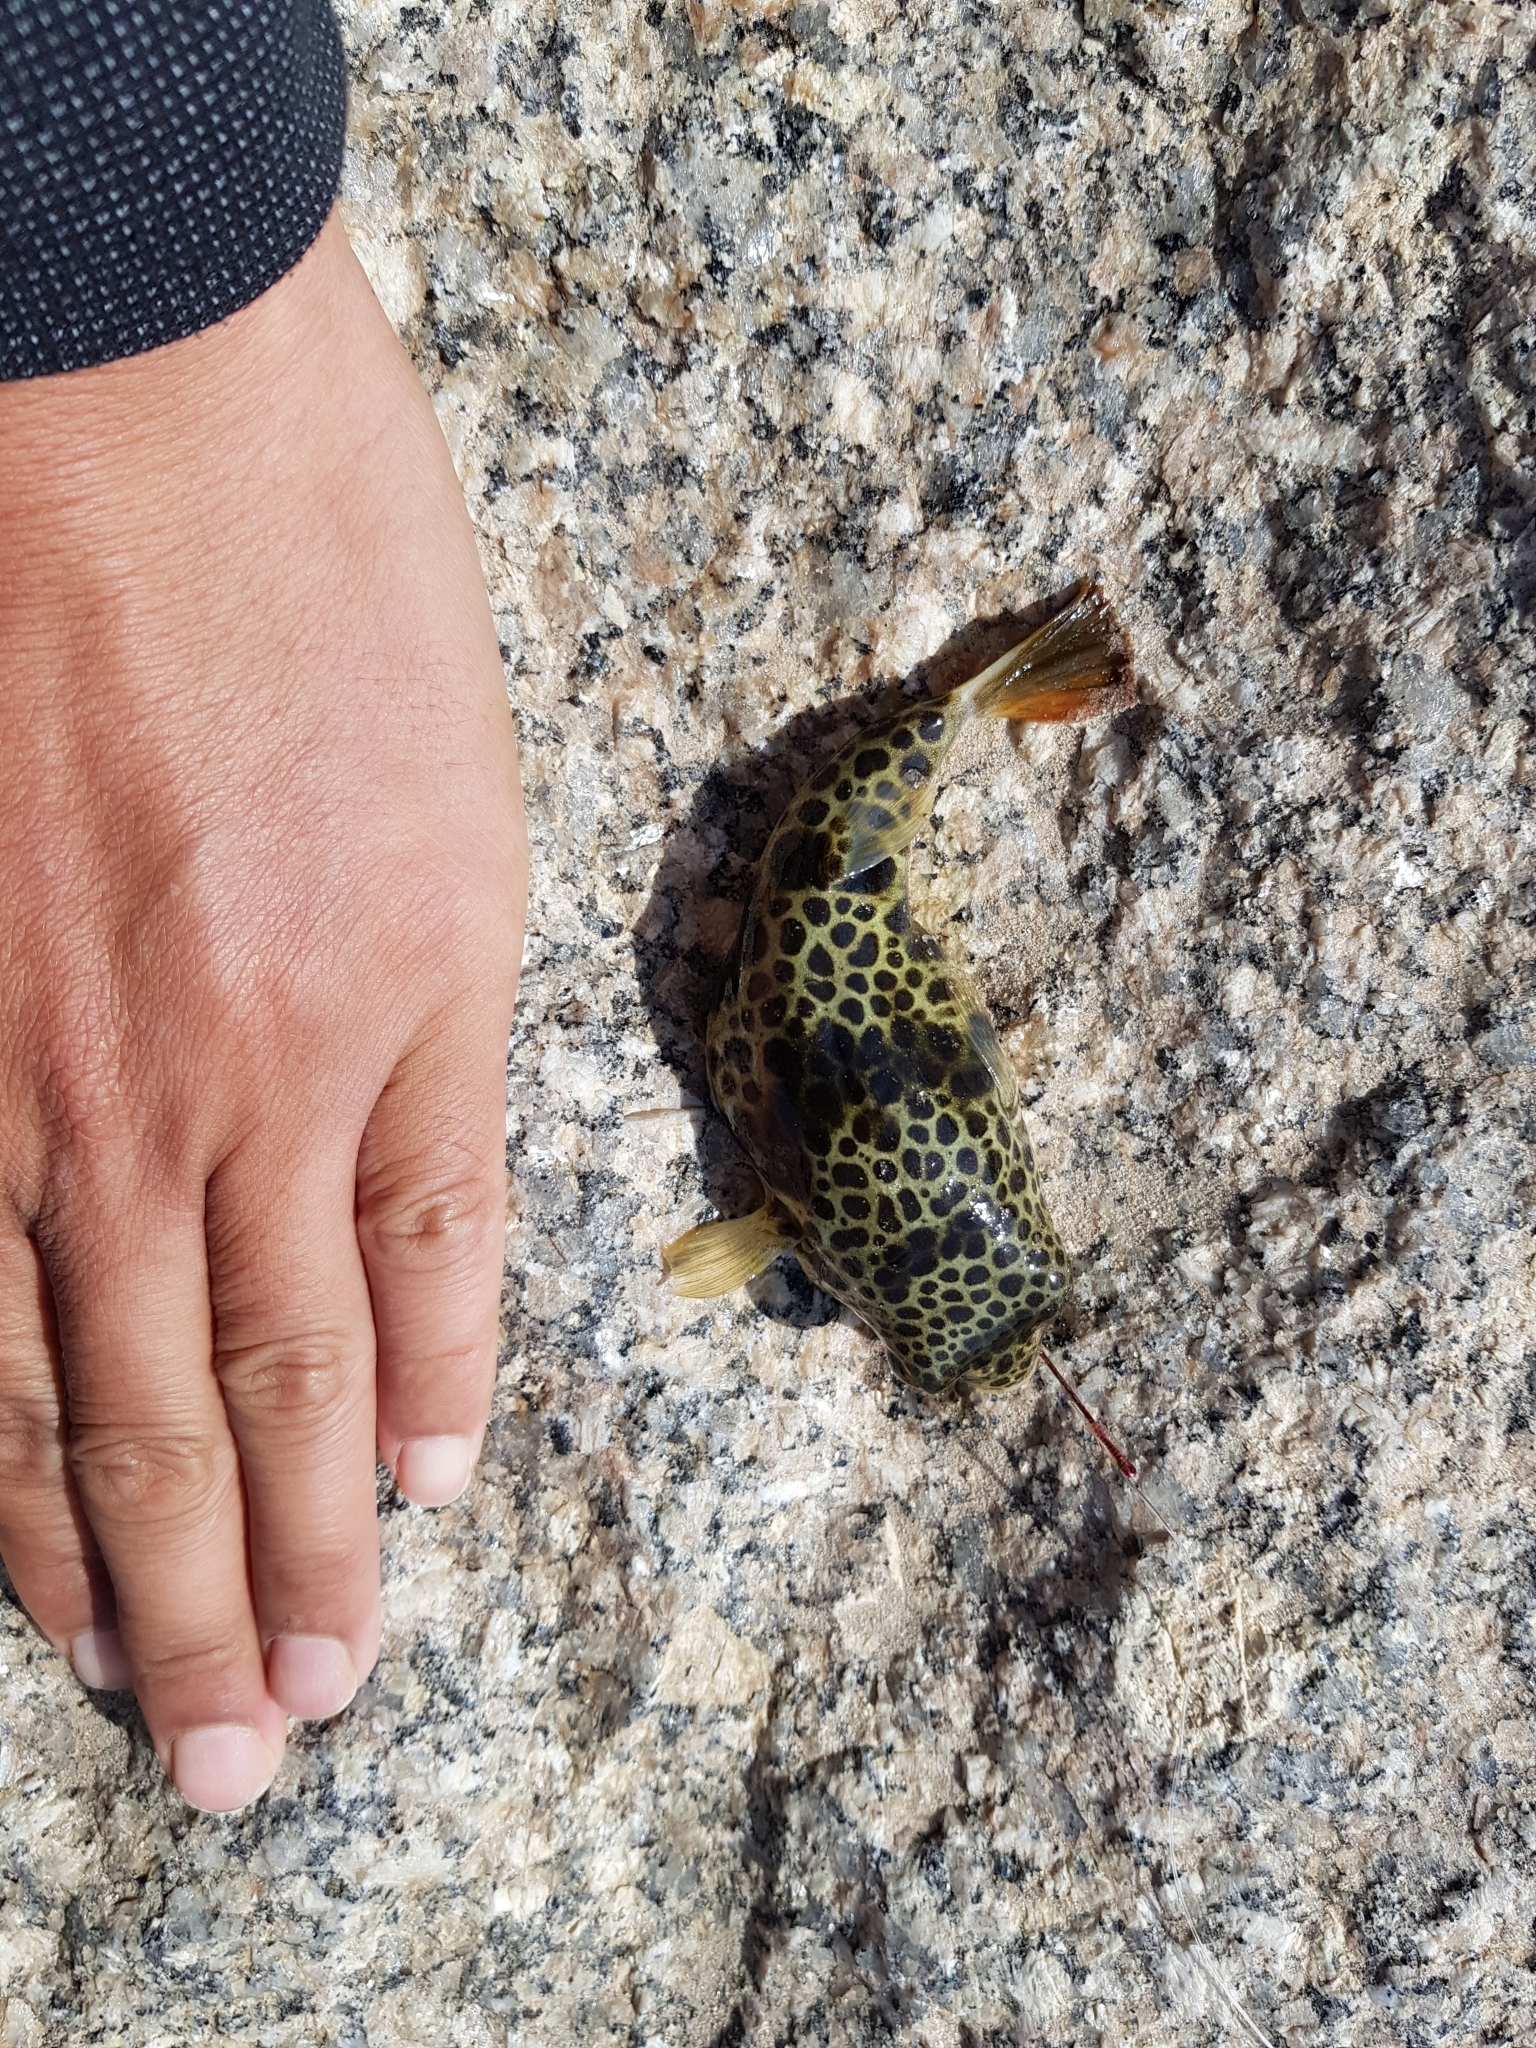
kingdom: Animalia
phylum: Chordata
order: Tetraodontiformes
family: Tetraodontidae
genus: Tetractenos
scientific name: Tetractenos glaber
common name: Smooth toadfish
